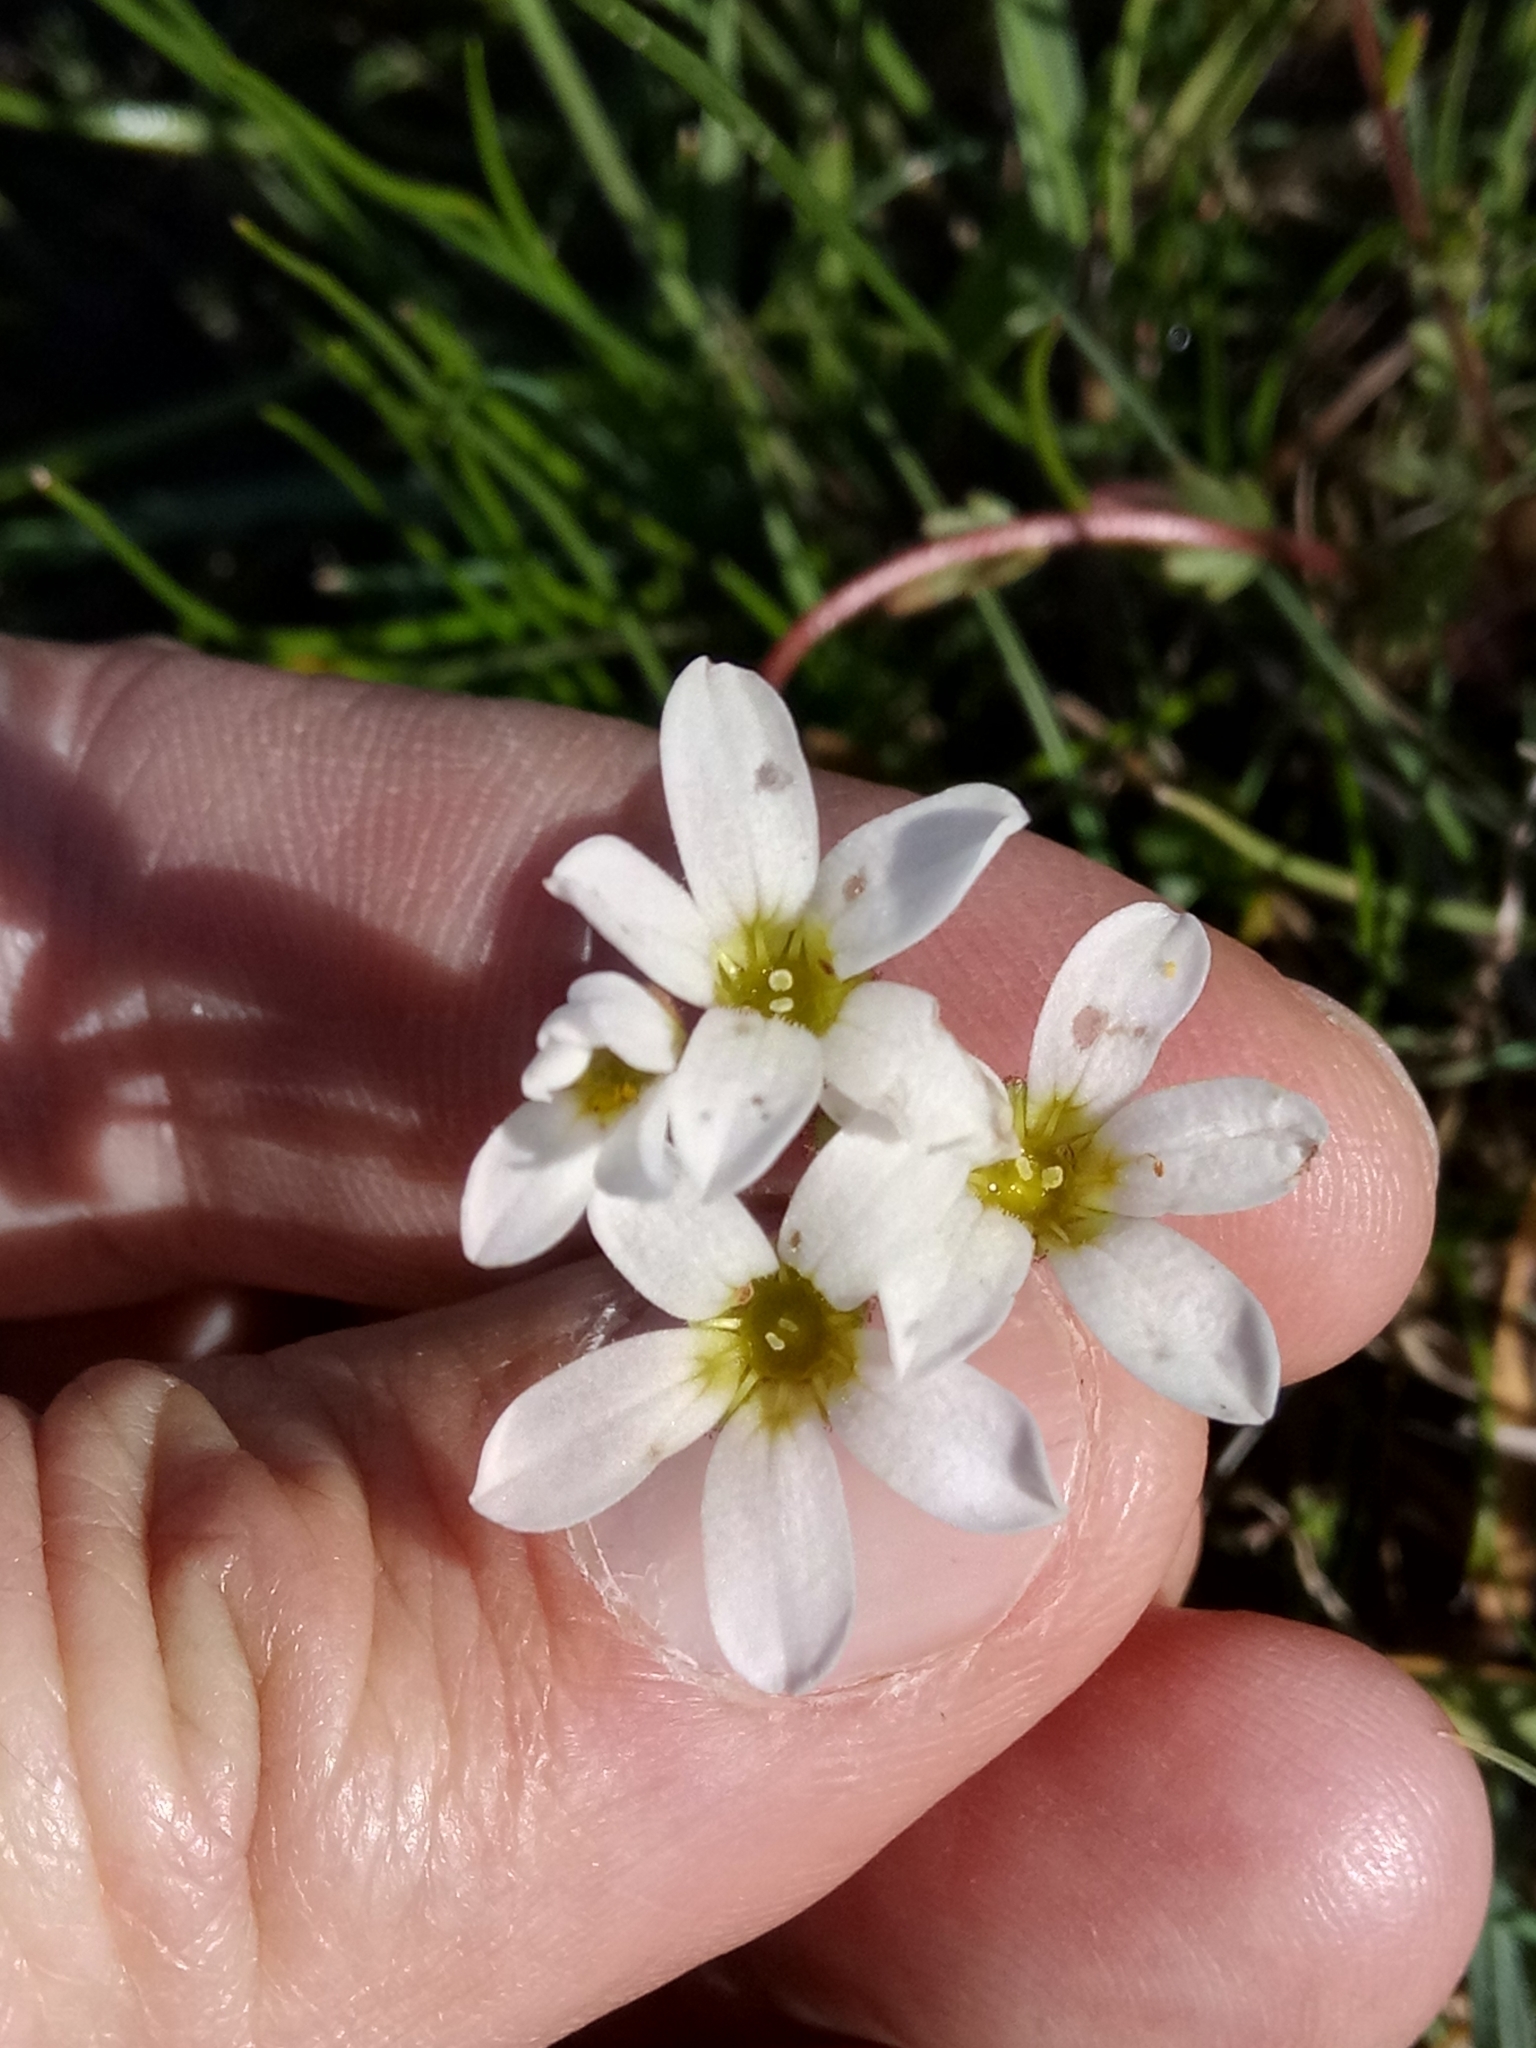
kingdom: Plantae
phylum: Tracheophyta
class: Magnoliopsida
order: Saxifragales
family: Saxifragaceae
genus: Saxifraga
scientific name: Saxifraga carpetana
